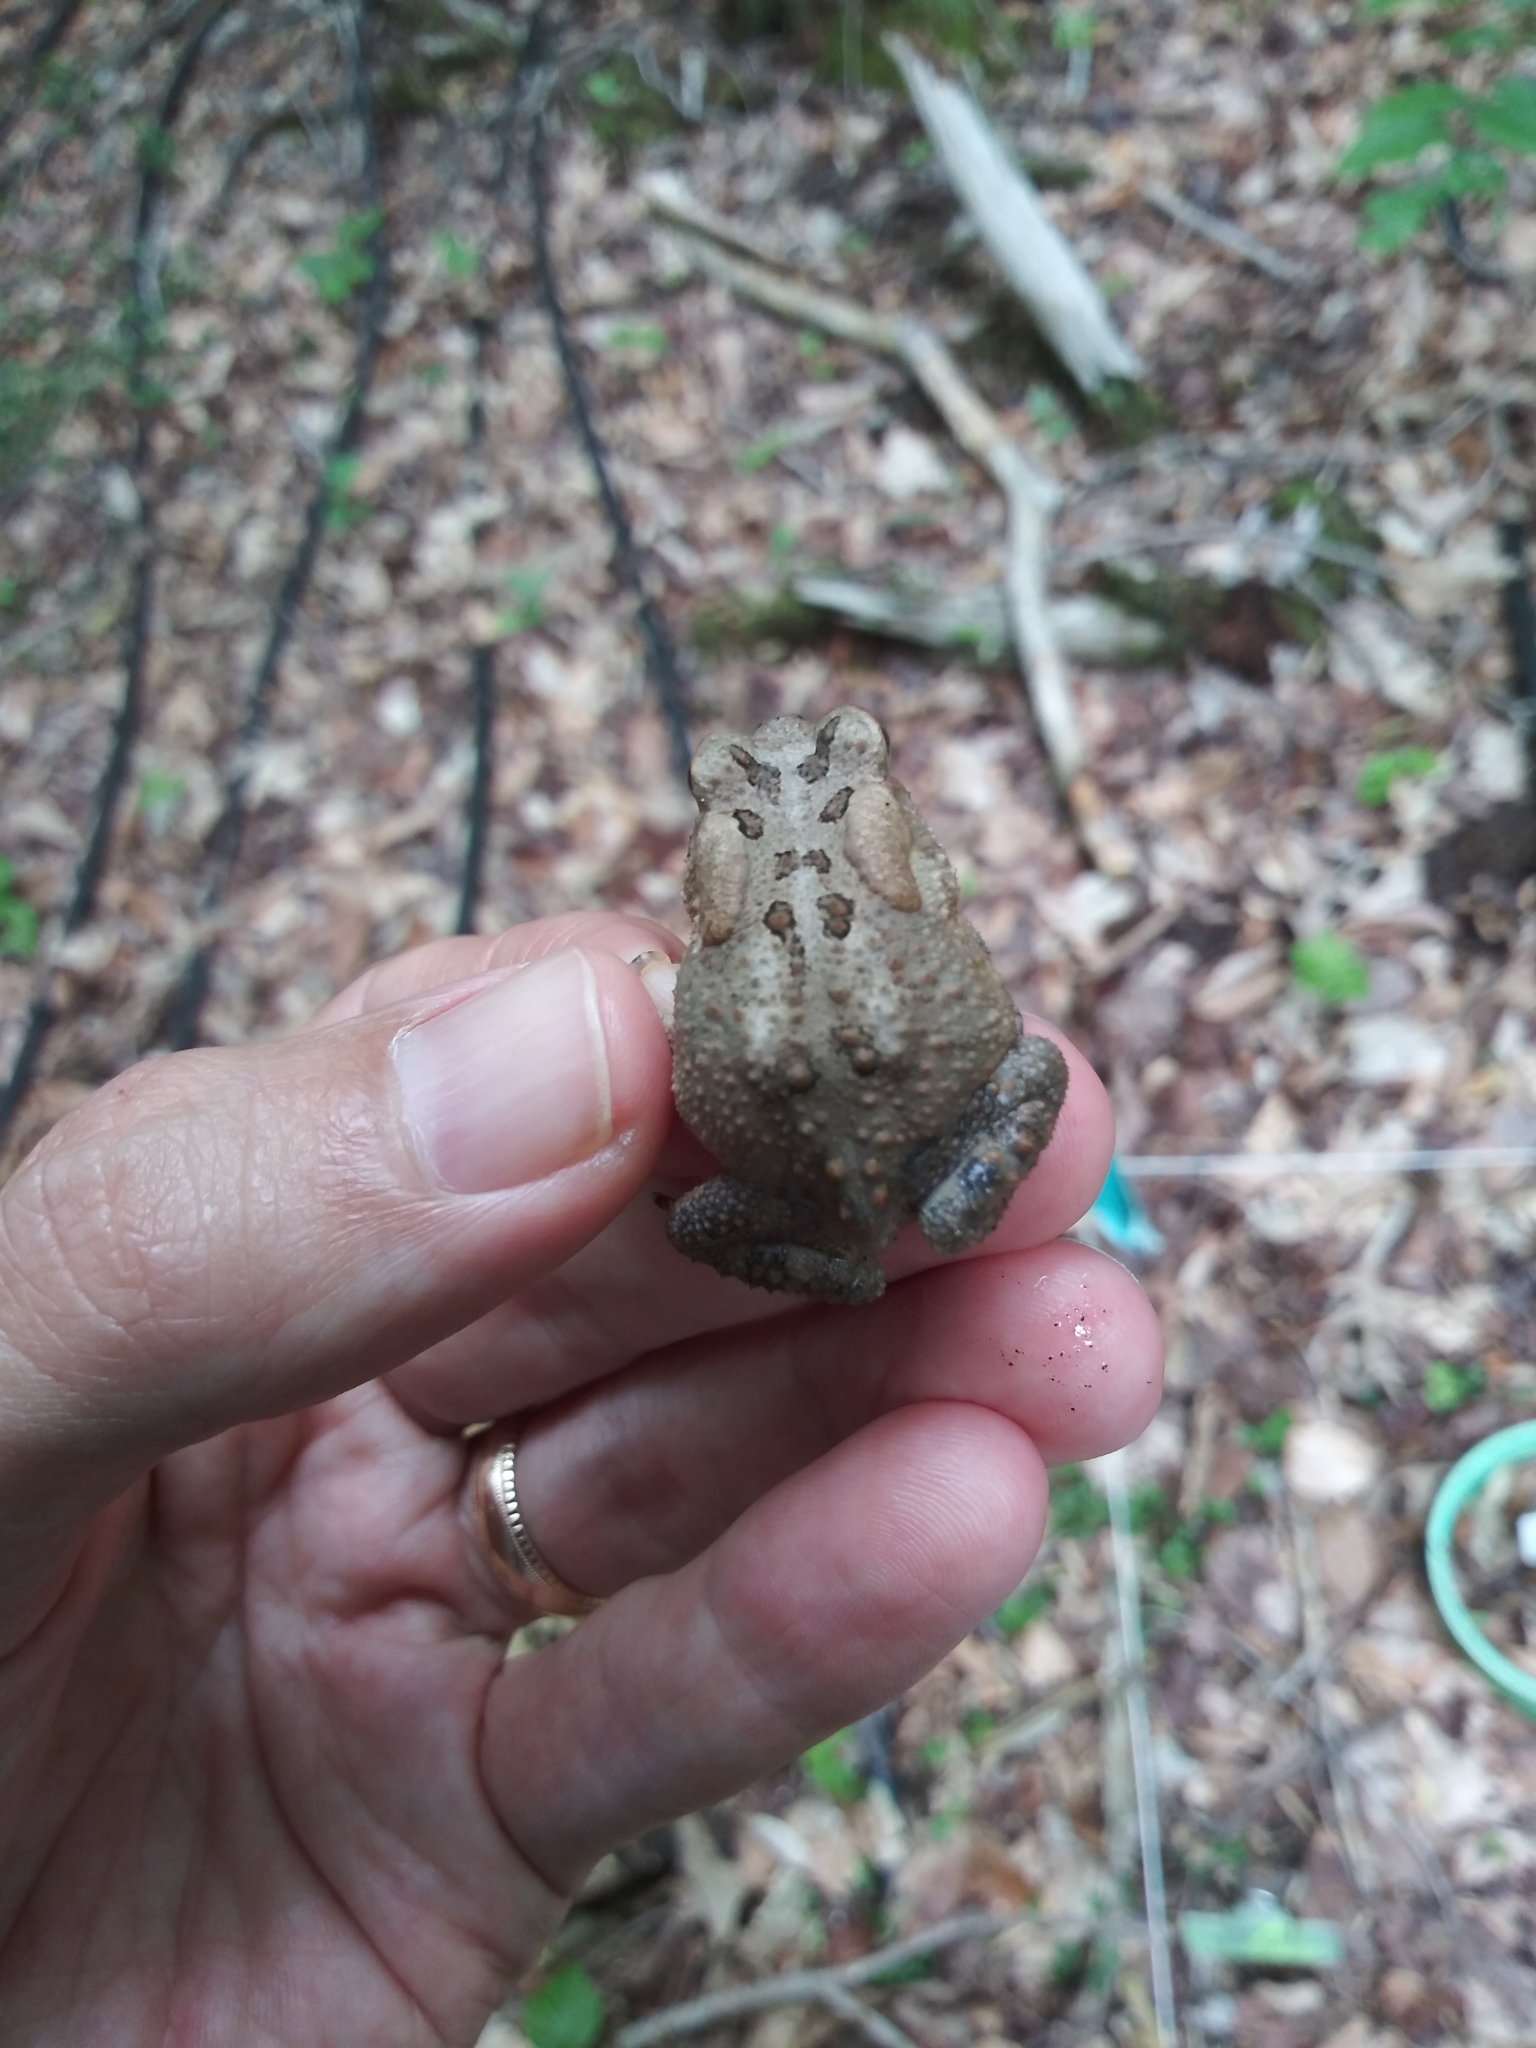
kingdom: Animalia
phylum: Chordata
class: Amphibia
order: Anura
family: Bufonidae
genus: Anaxyrus
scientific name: Anaxyrus americanus
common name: American toad
